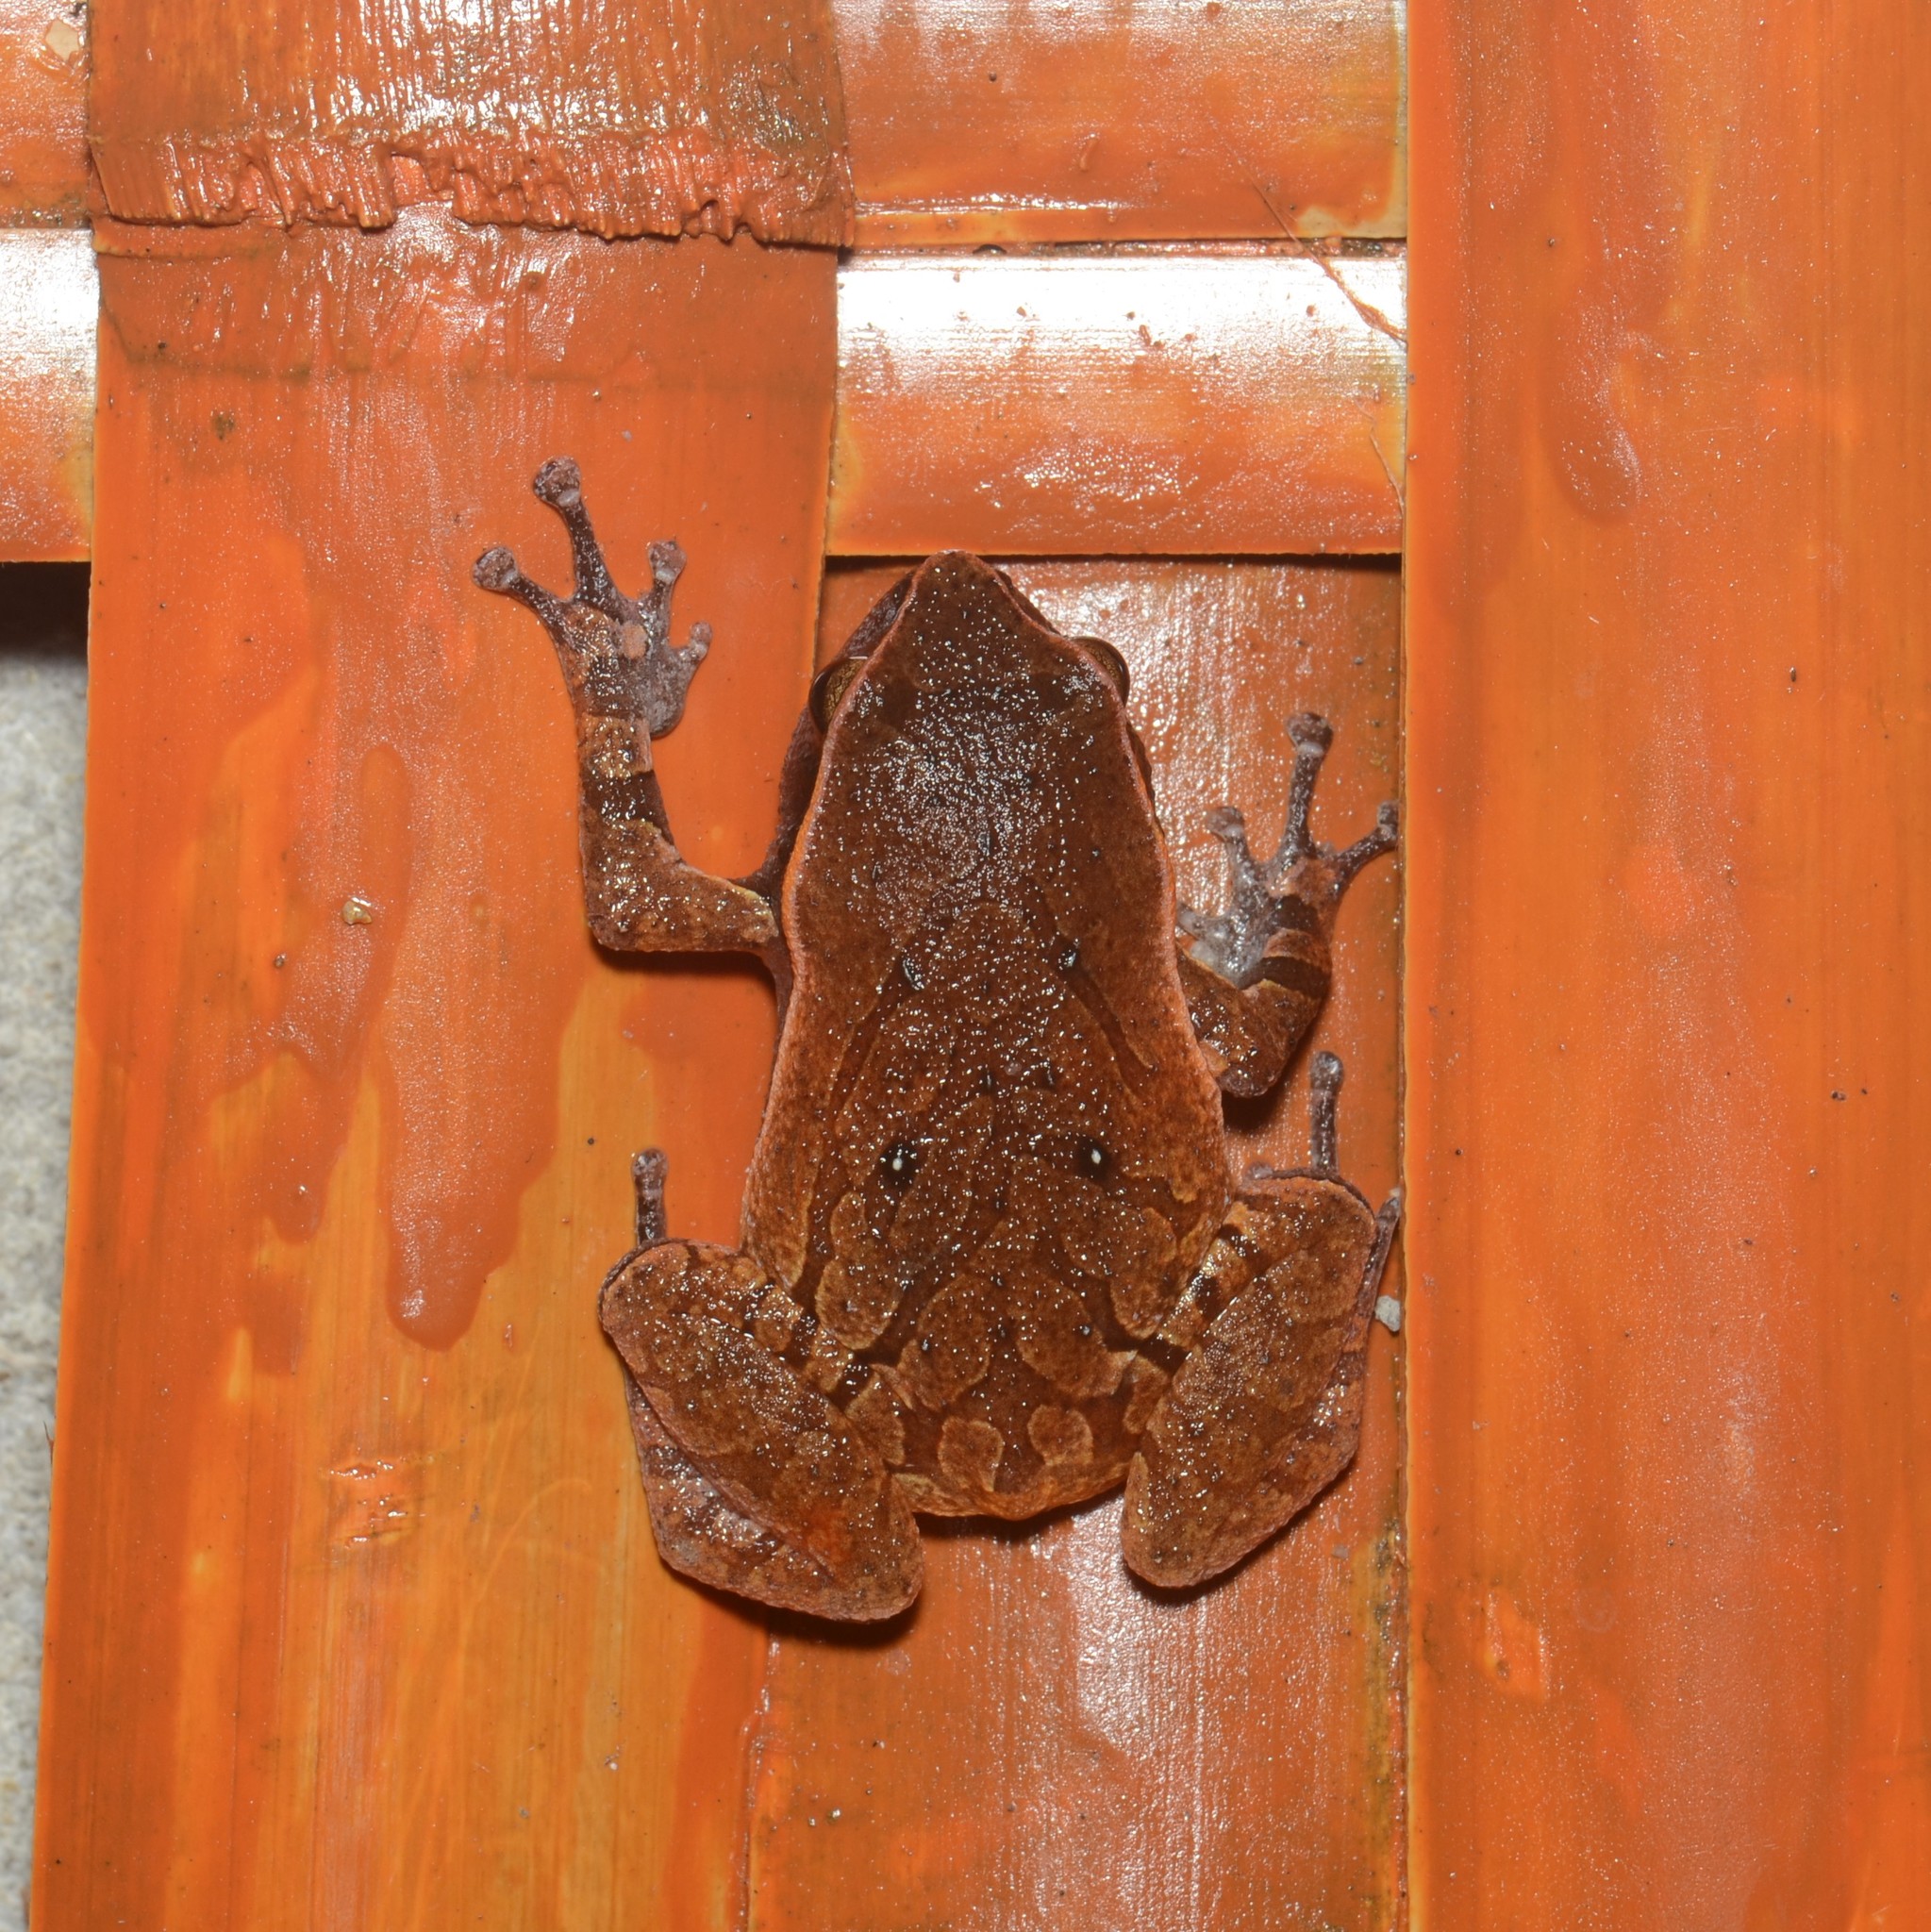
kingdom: Animalia
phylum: Chordata
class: Amphibia
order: Anura
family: Microhylidae
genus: Plethodontohyla
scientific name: Plethodontohyla notosticta
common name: Mahanoro digging frog
